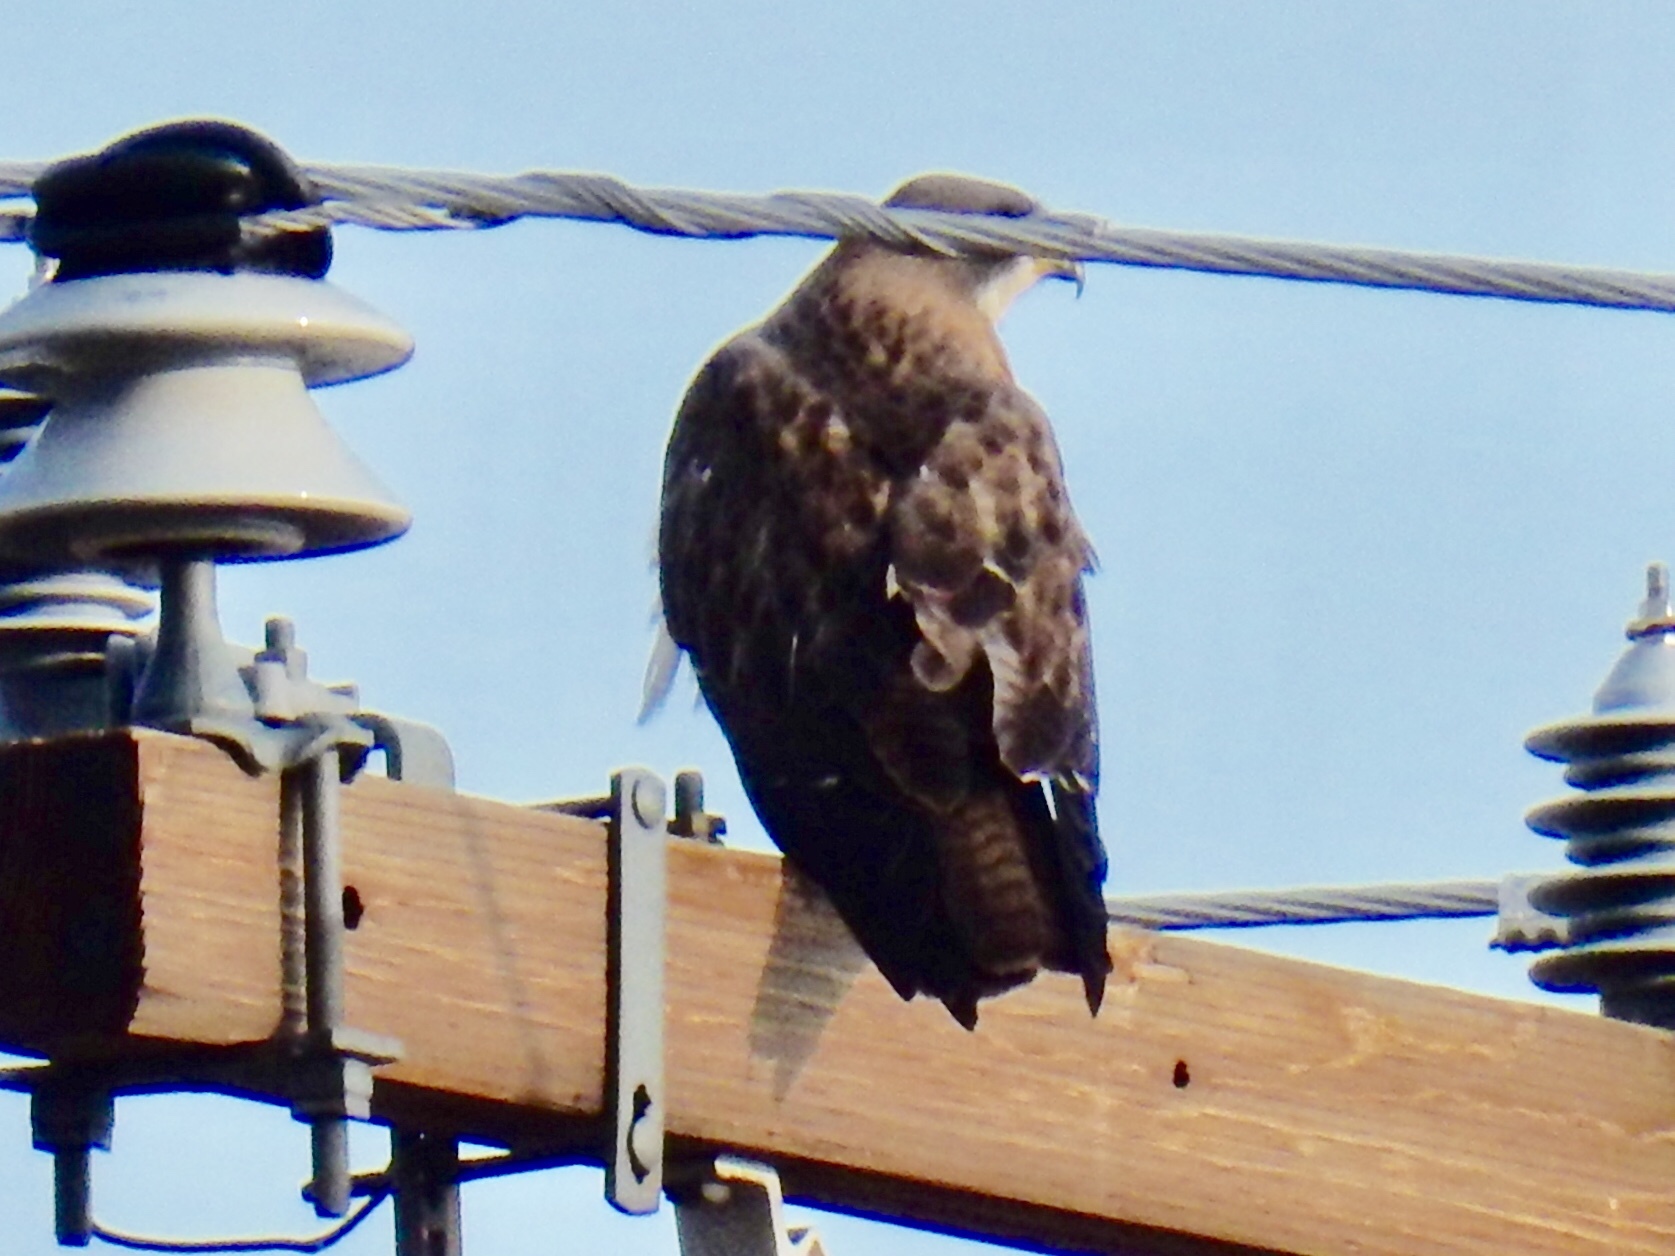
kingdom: Animalia
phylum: Chordata
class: Aves
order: Accipitriformes
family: Accipitridae
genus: Buteo
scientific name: Buteo swainsoni
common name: Swainson's hawk
